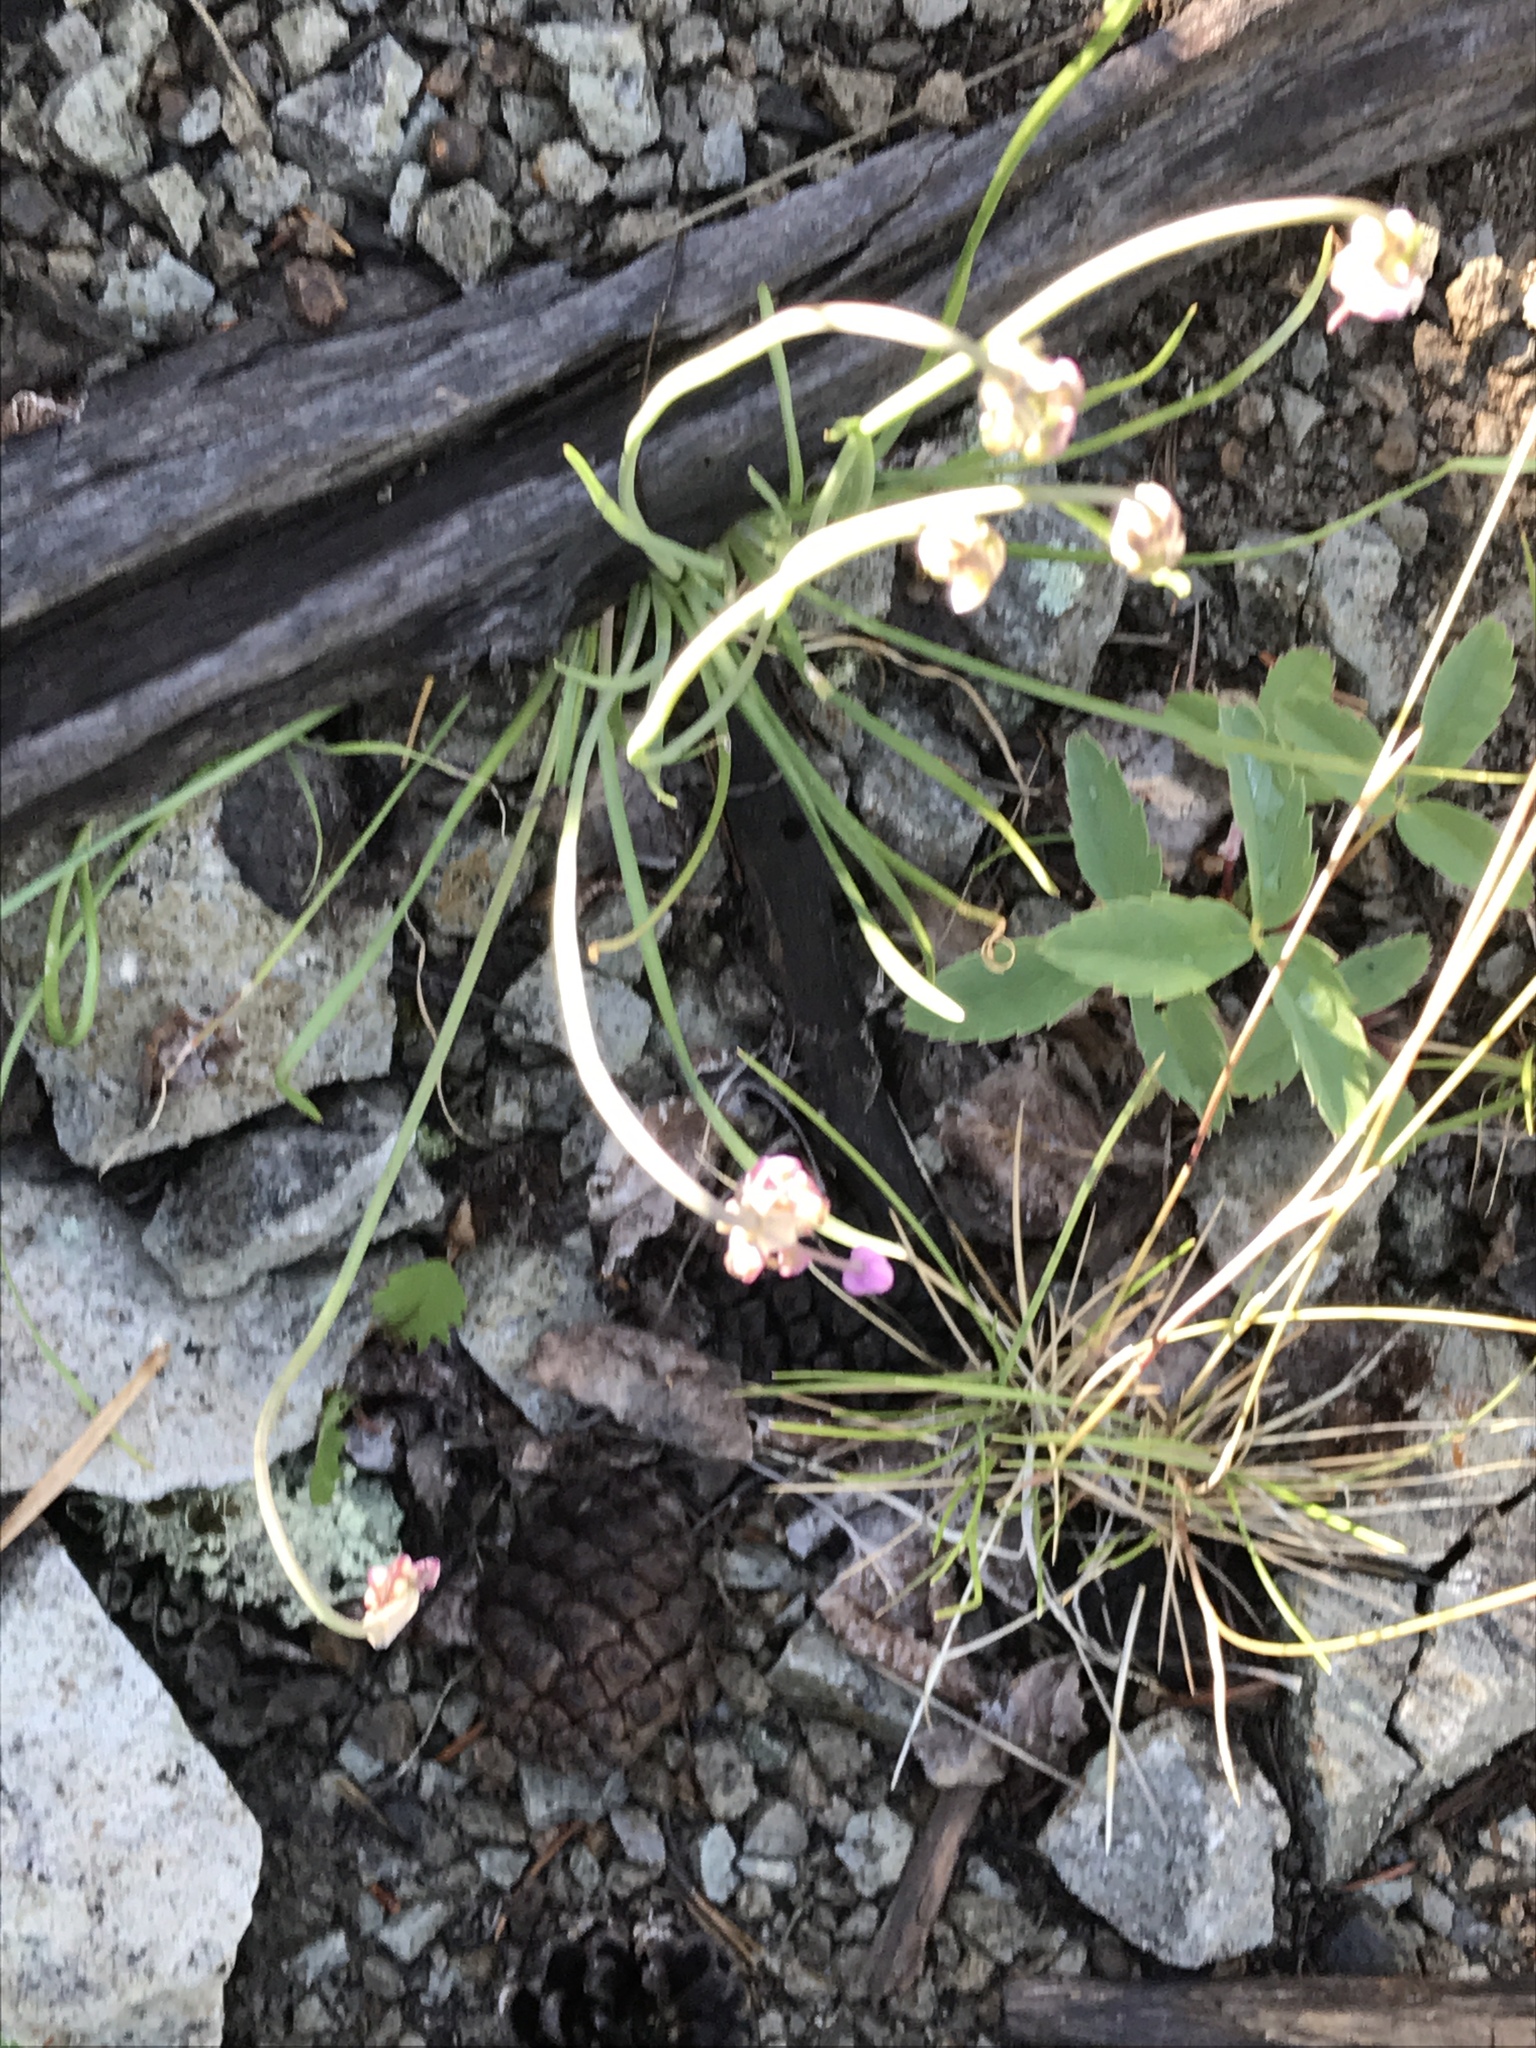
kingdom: Plantae
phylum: Tracheophyta
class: Liliopsida
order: Asparagales
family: Amaryllidaceae
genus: Allium
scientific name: Allium cernuum
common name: Nodding onion
